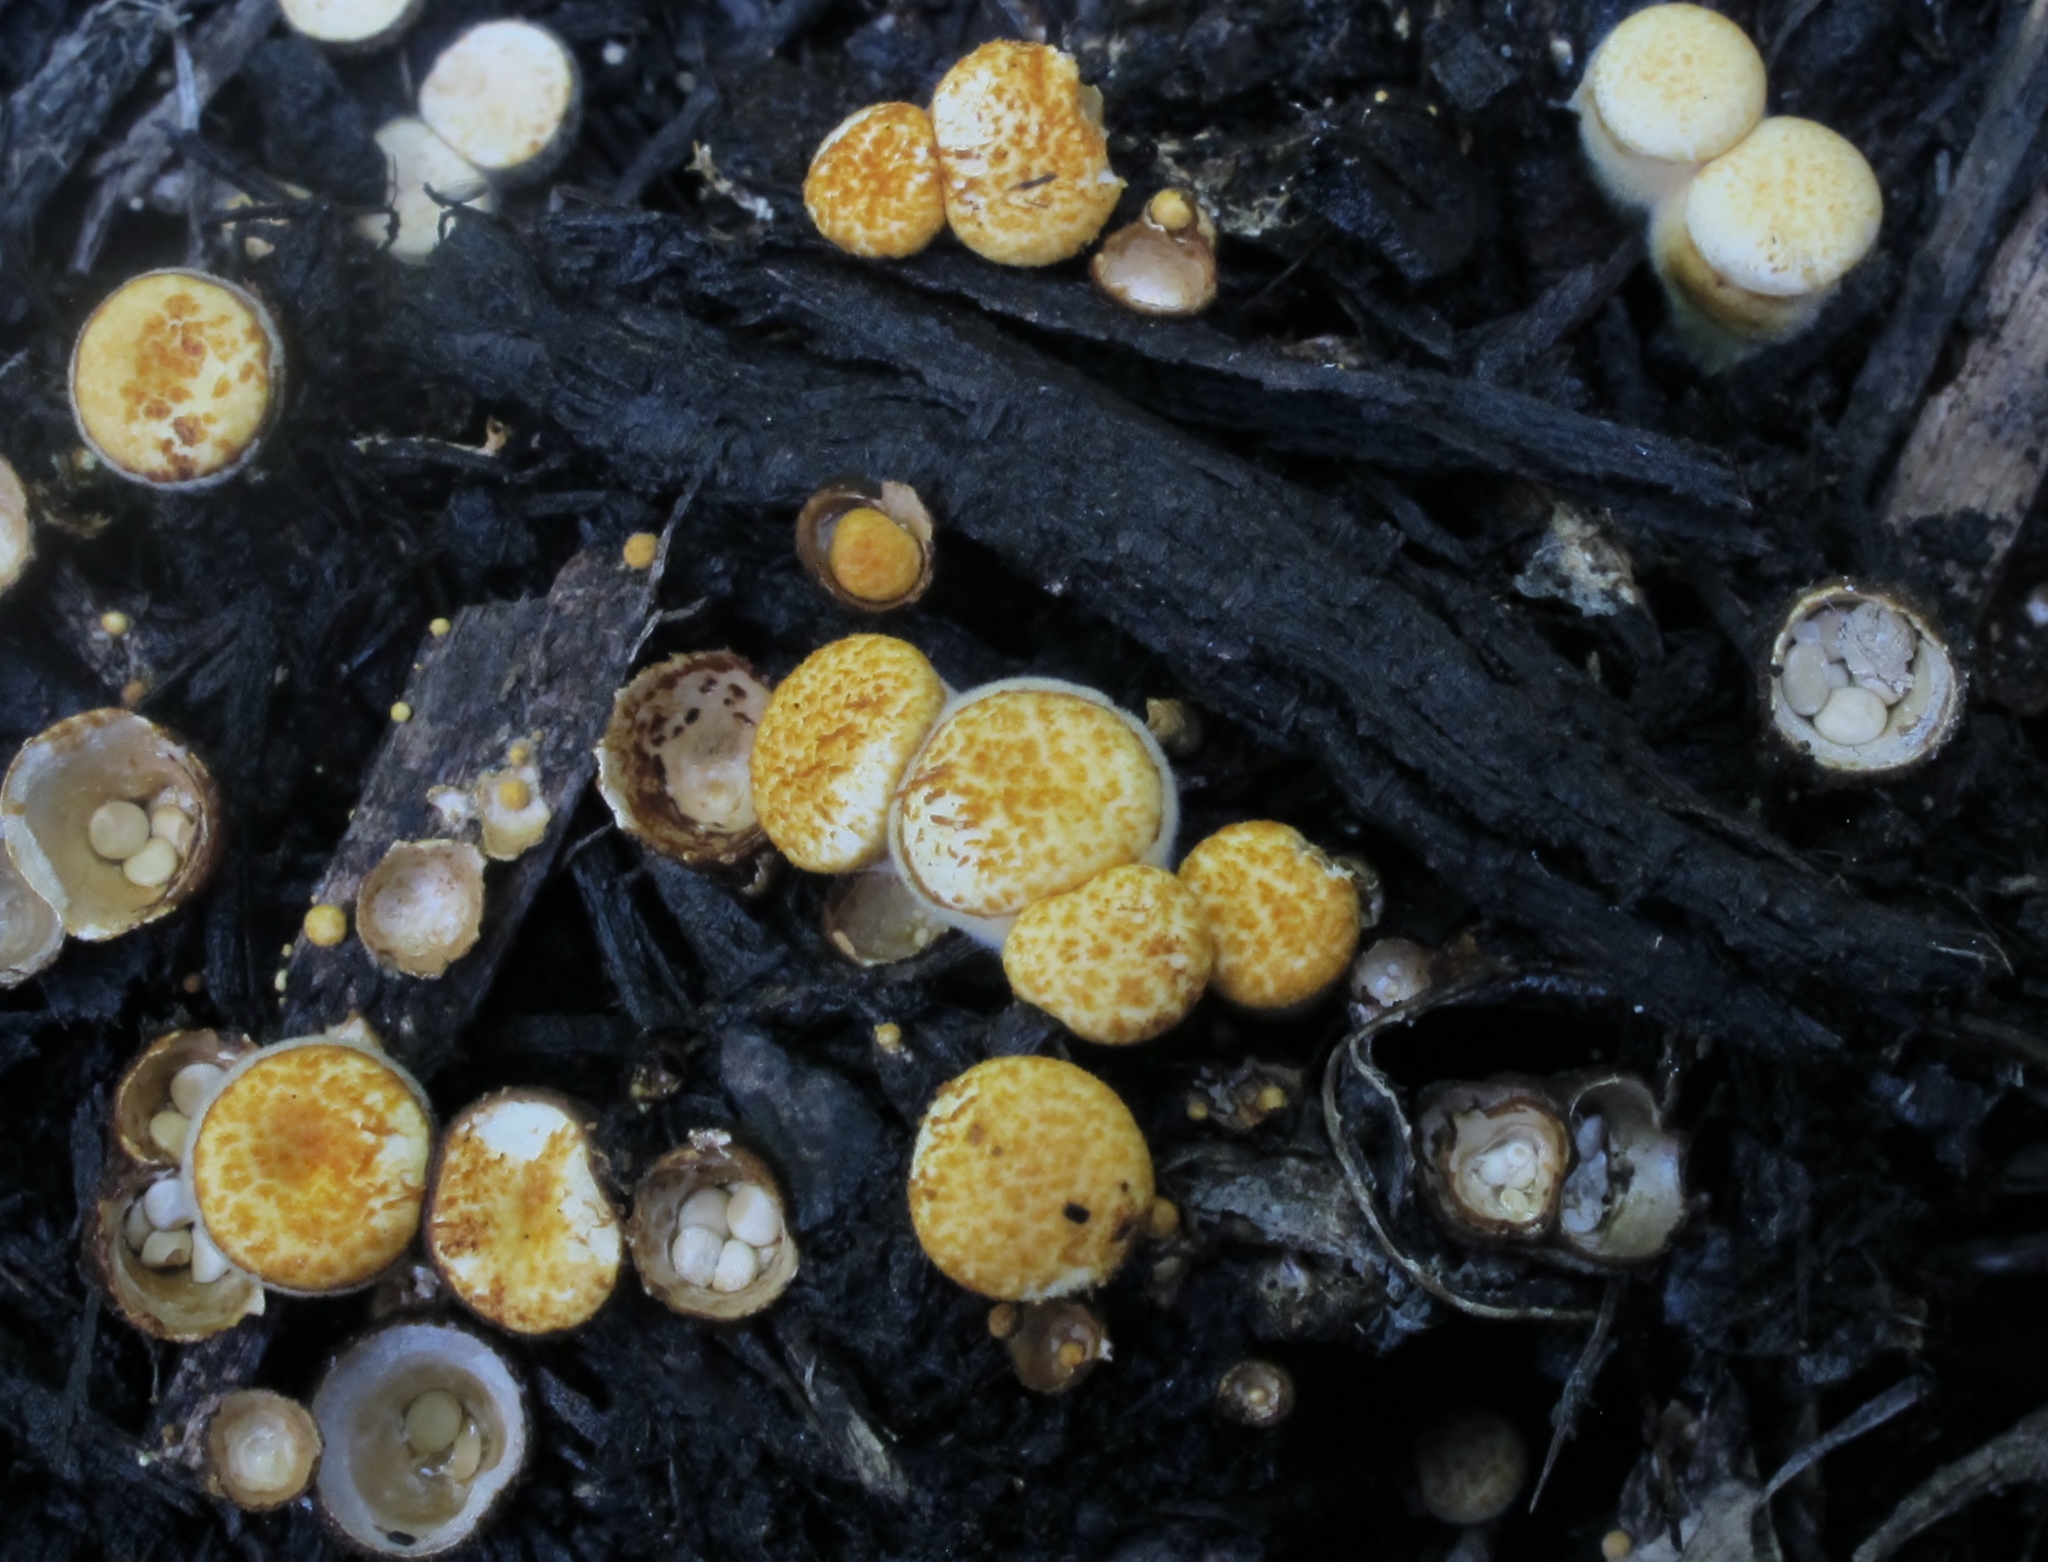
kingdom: Fungi
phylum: Basidiomycota
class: Agaricomycetes
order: Agaricales
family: Nidulariaceae
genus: Crucibulum
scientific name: Crucibulum laeve
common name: Common bird's nest
